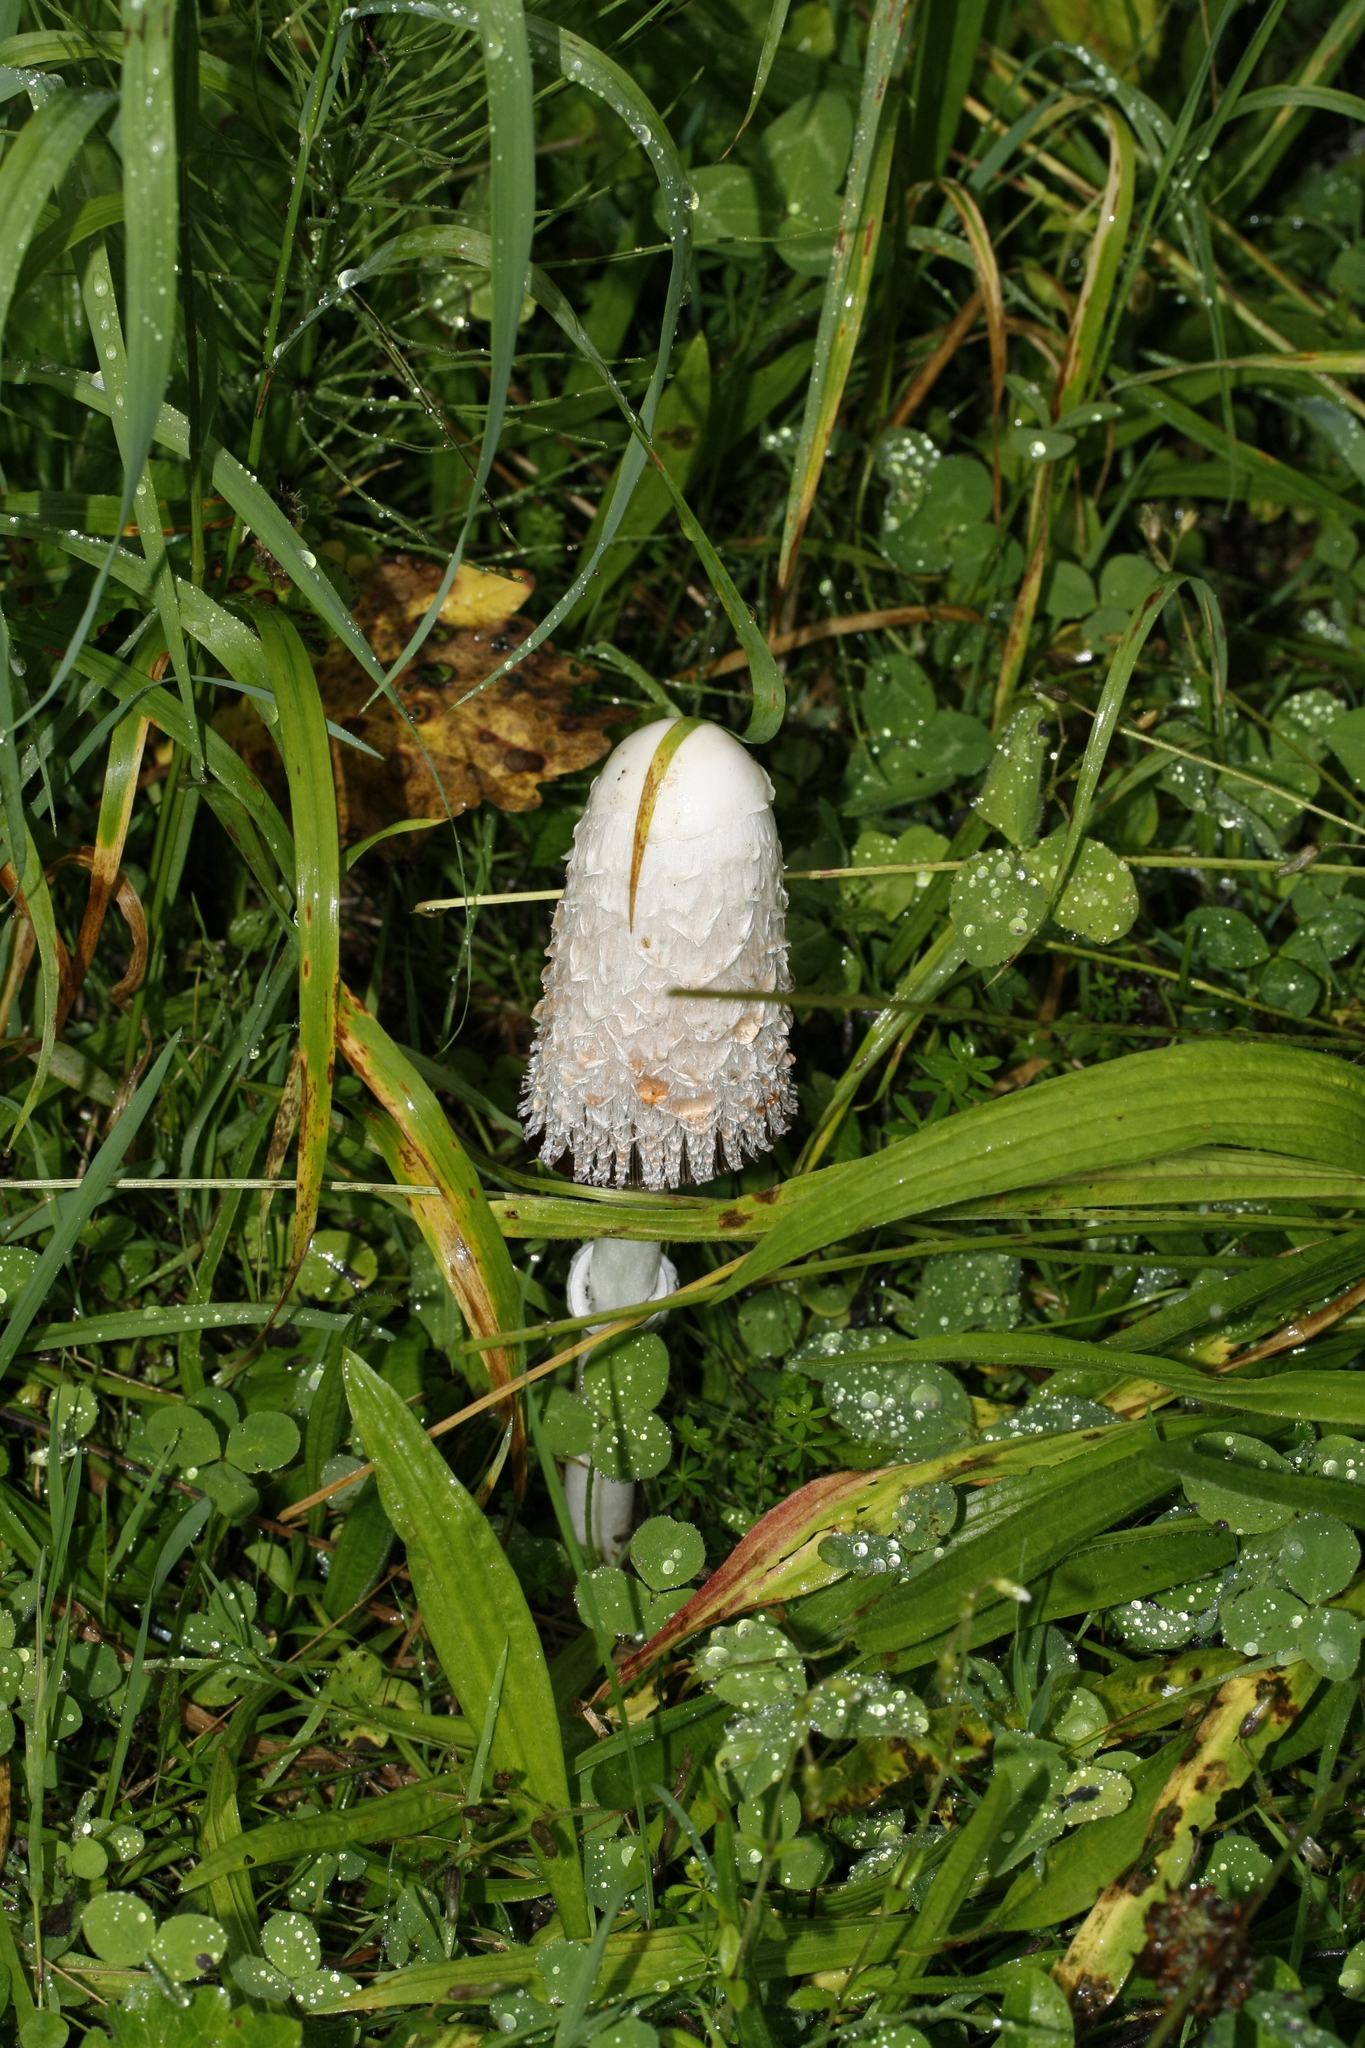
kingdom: Fungi
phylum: Basidiomycota
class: Agaricomycetes
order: Agaricales
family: Agaricaceae
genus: Coprinus
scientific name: Coprinus comatus
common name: Lawyer's wig
